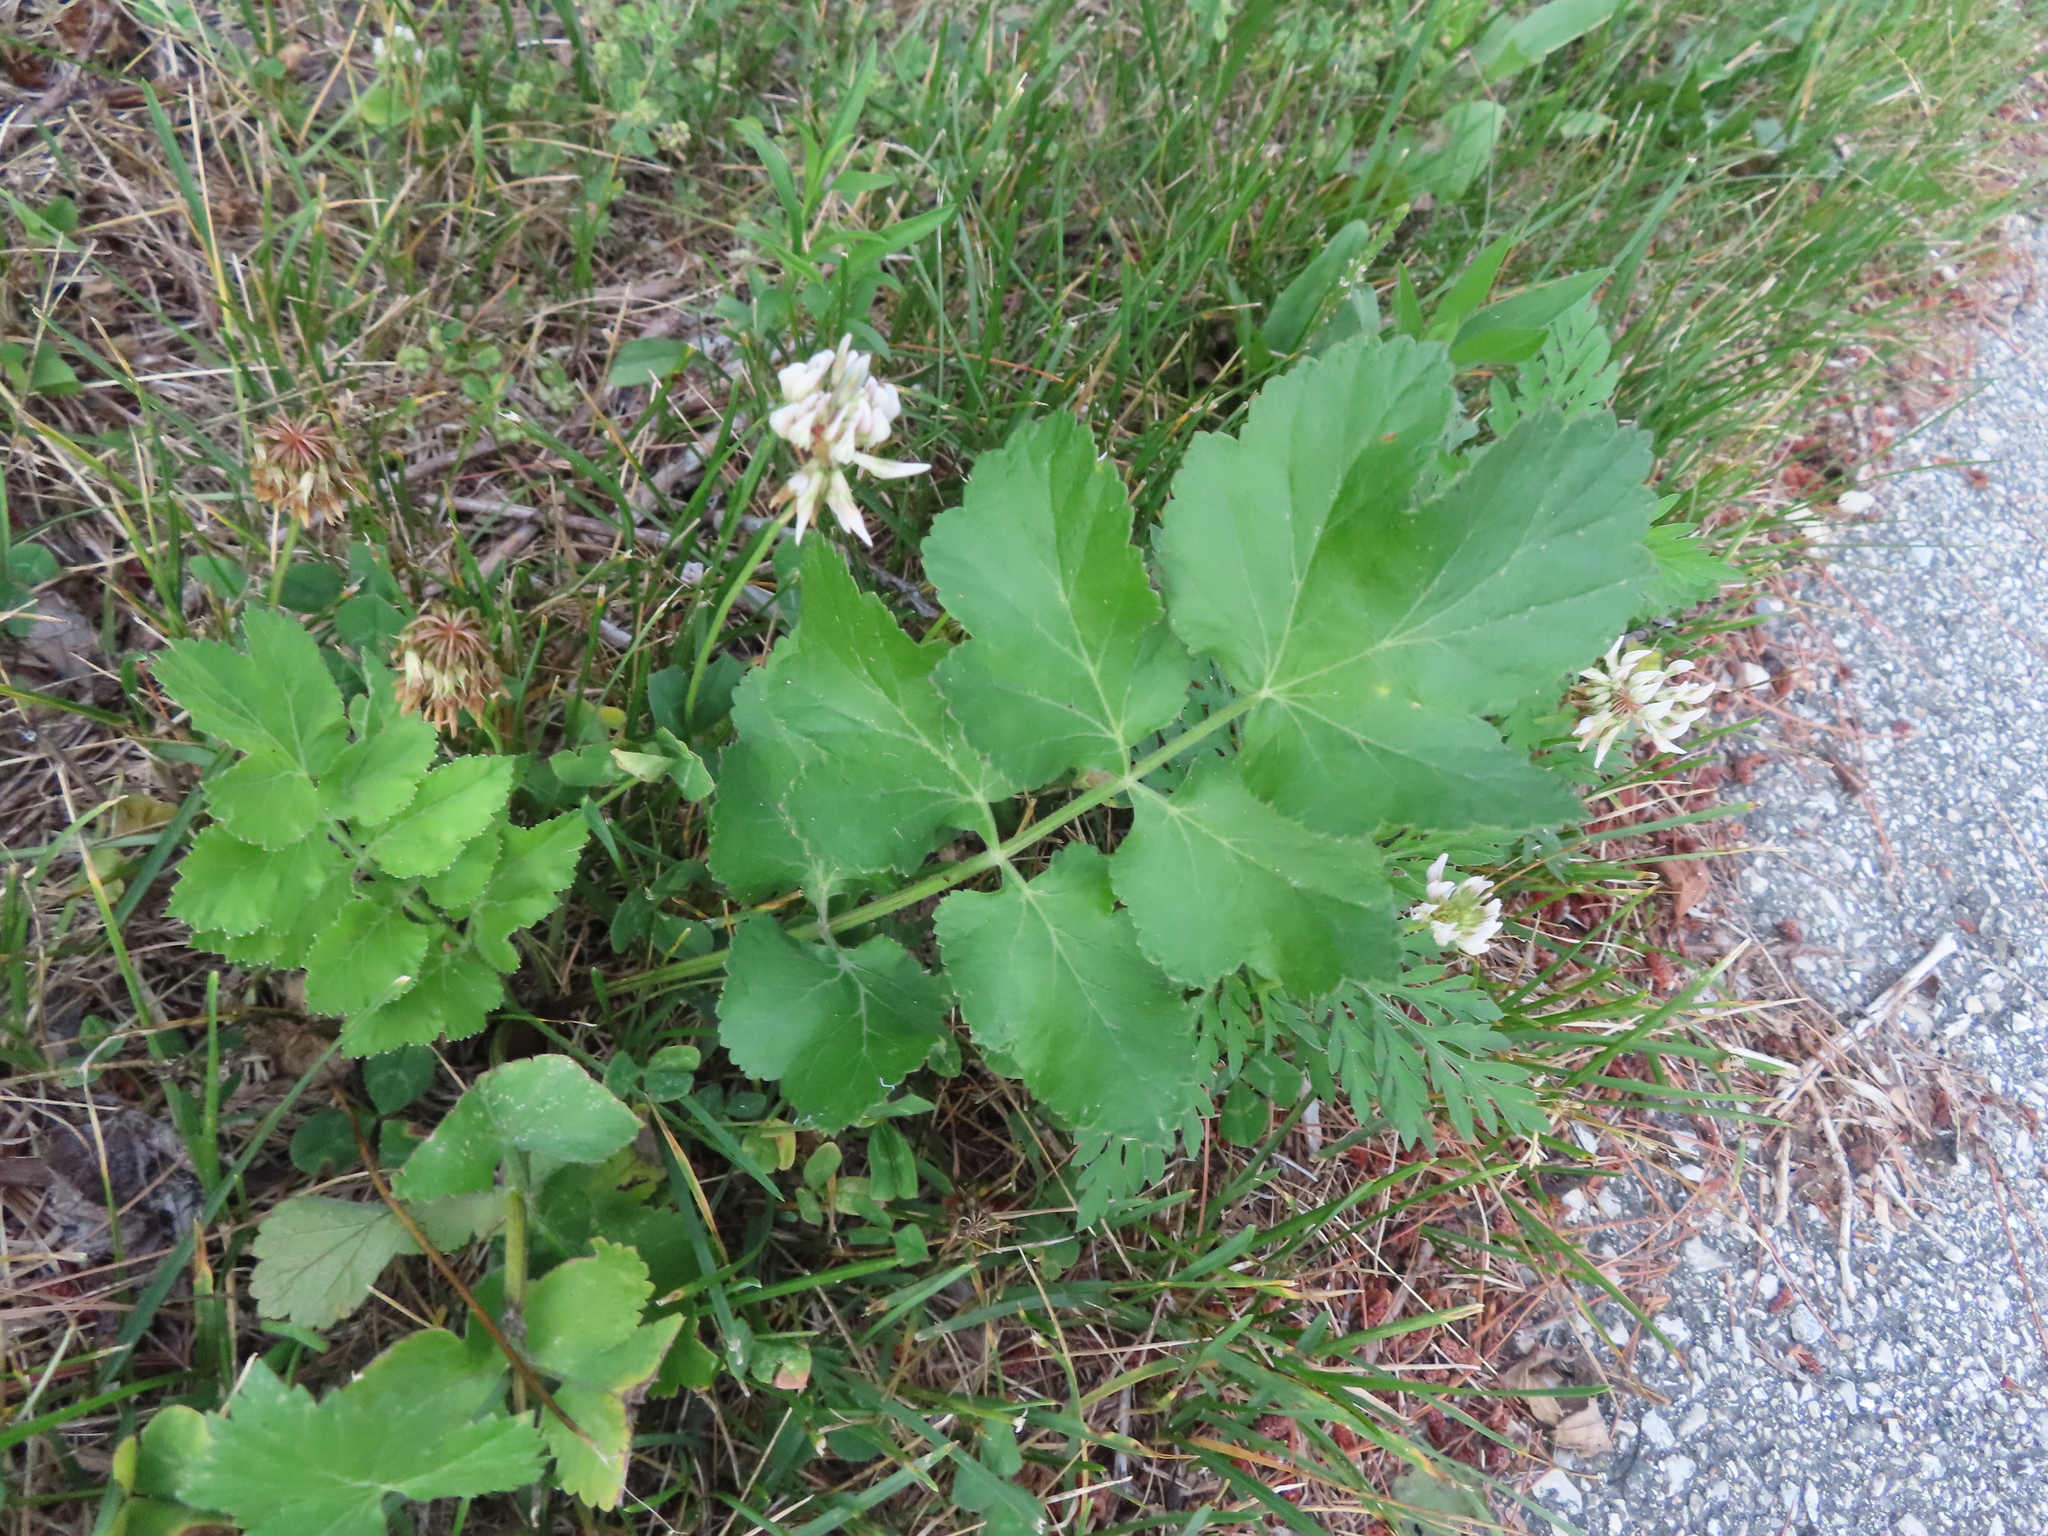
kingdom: Plantae
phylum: Tracheophyta
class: Magnoliopsida
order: Apiales
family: Apiaceae
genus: Pastinaca
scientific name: Pastinaca sativa
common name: Wild parsnip
